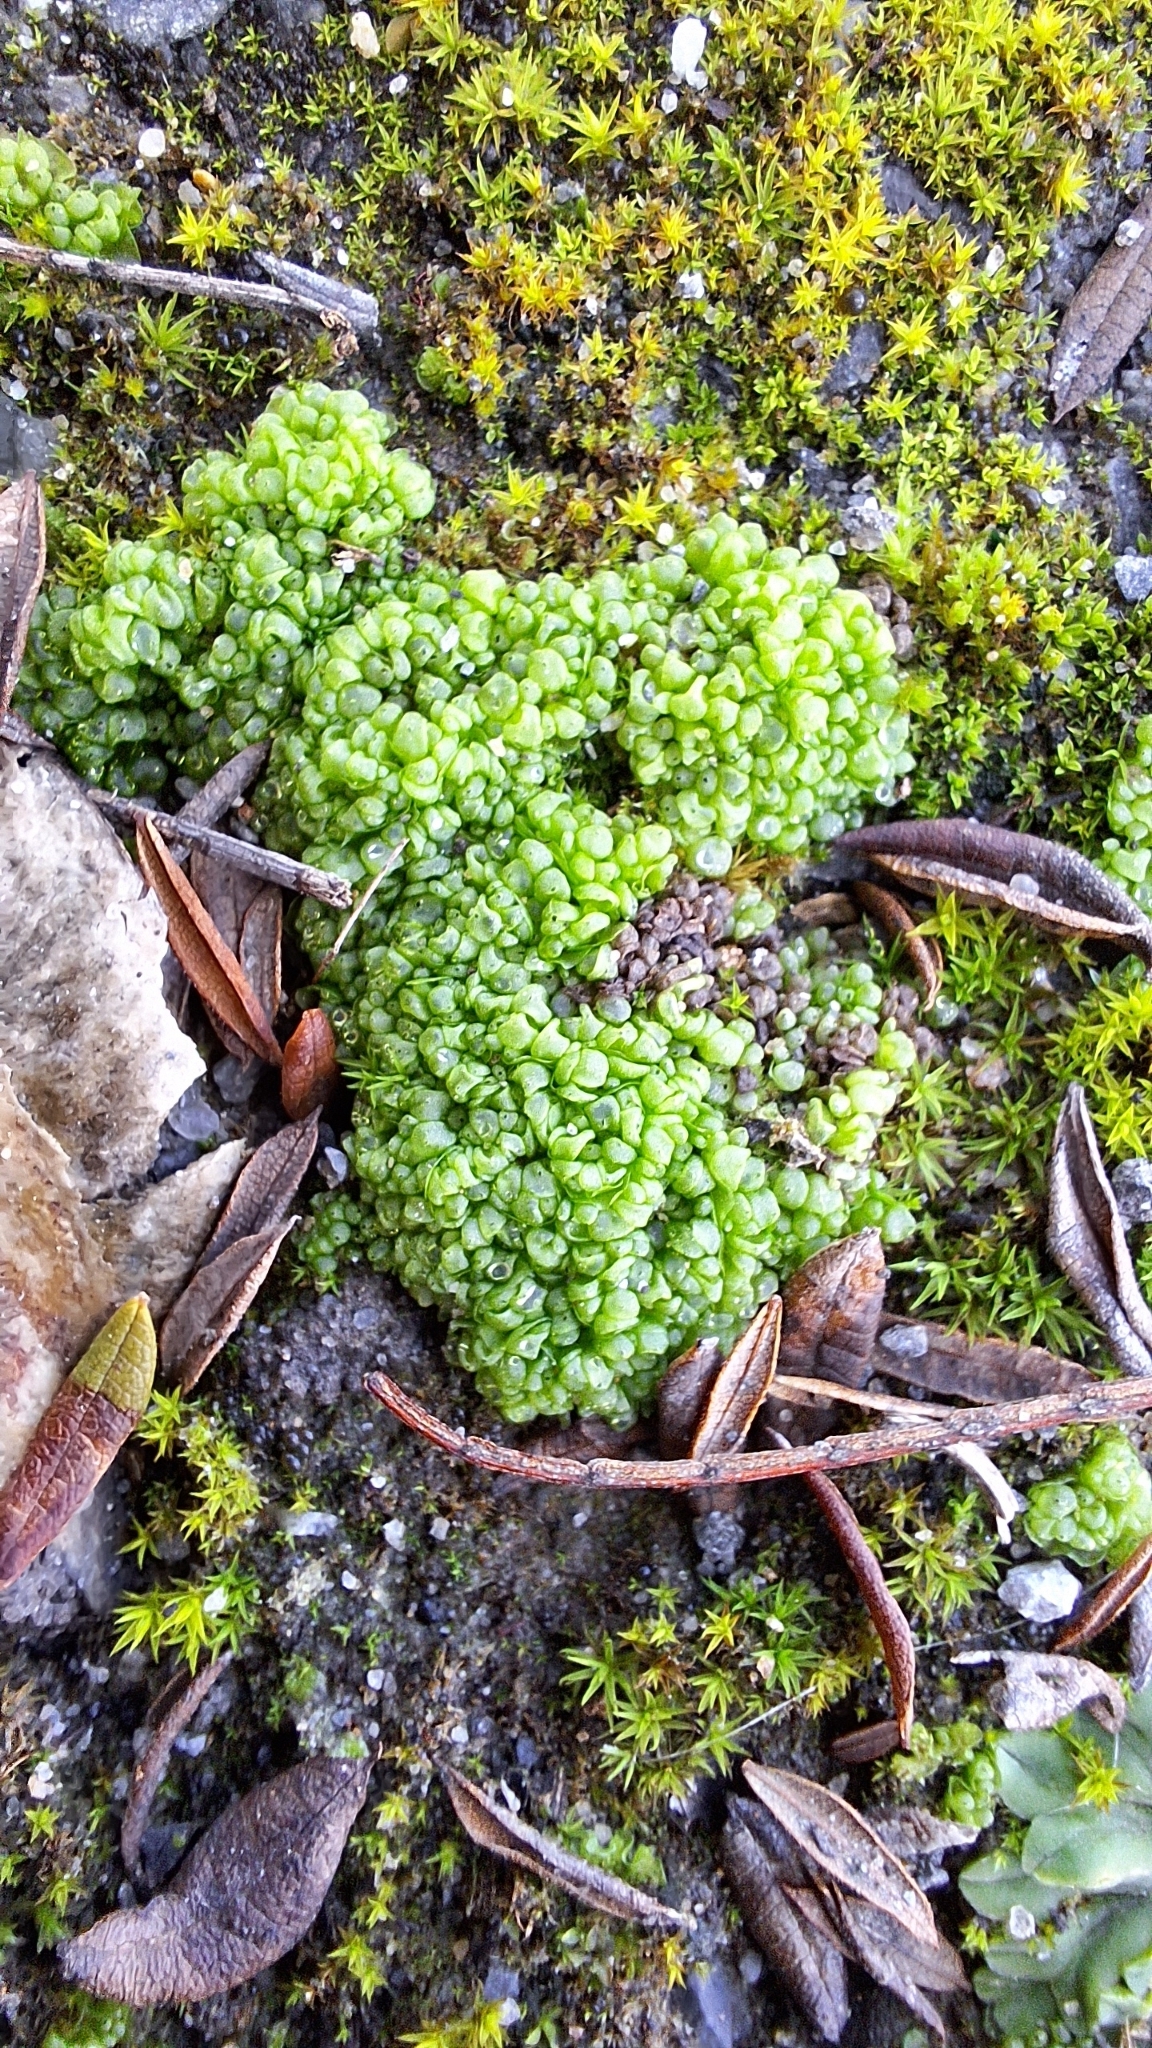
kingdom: Plantae
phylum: Marchantiophyta
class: Marchantiopsida
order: Sphaerocarpales
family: Sphaerocarpaceae
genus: Sphaerocarpos
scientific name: Sphaerocarpos texanus
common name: Texas balloonwort
